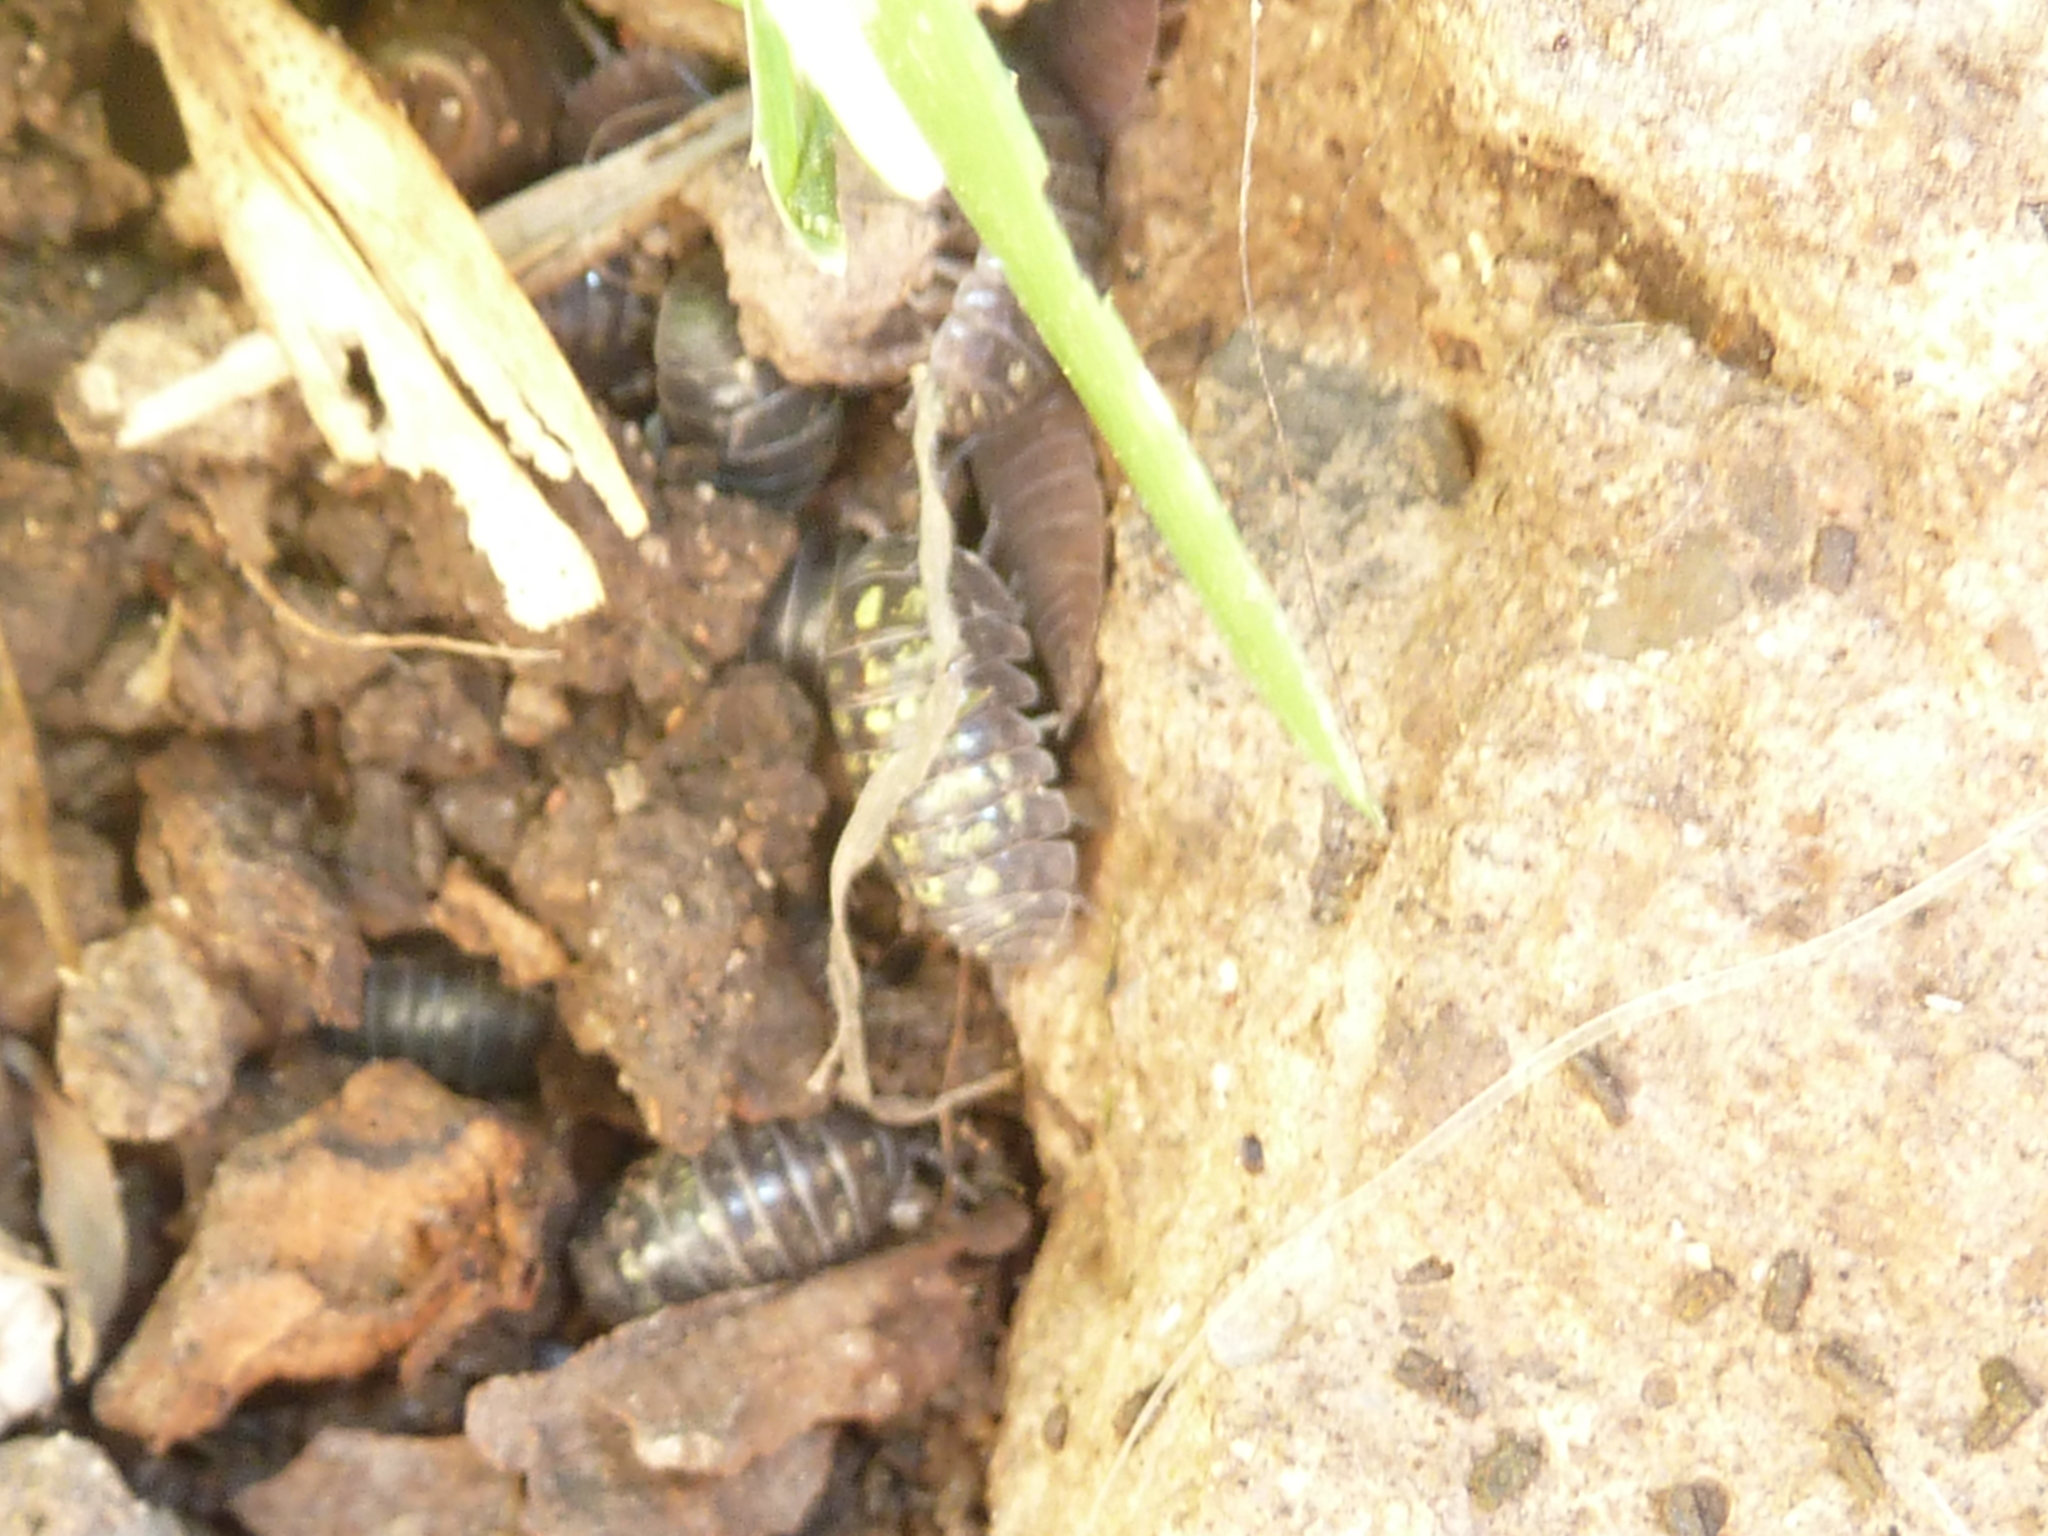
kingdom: Animalia
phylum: Arthropoda
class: Malacostraca
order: Isopoda
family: Armadillidiidae
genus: Armadillidium
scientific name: Armadillidium vulgare
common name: Common pill woodlouse
